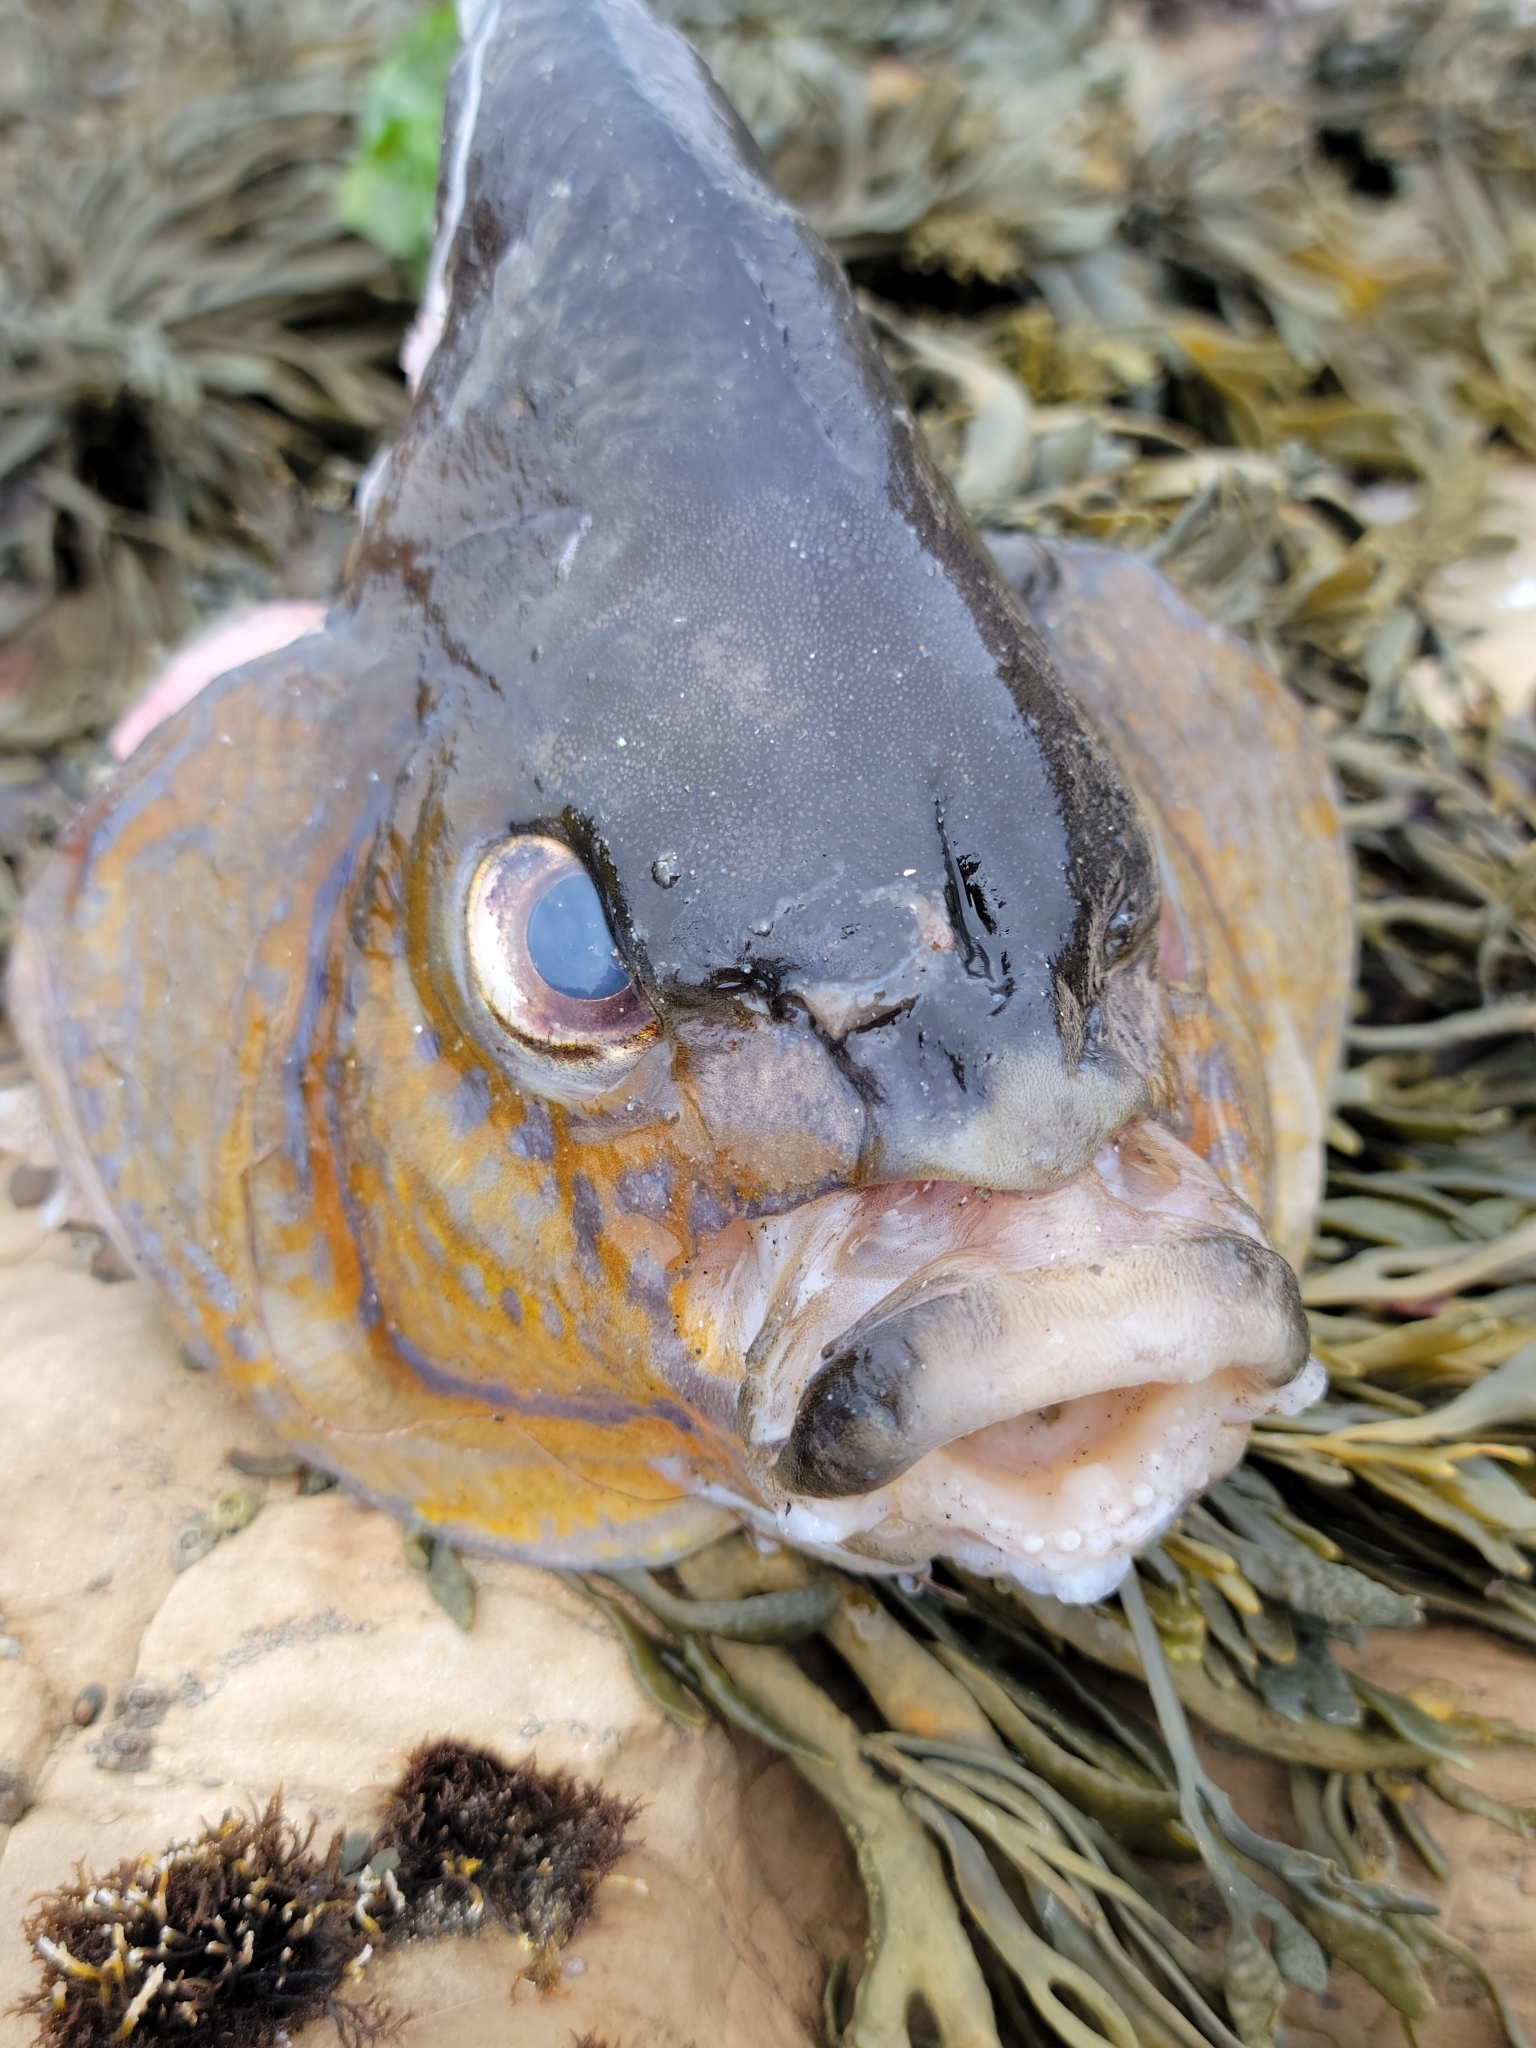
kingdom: Animalia
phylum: Chordata
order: Perciformes
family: Embiotocidae
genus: Embiotoca
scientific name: Embiotoca lateralis
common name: Striped surfperch
